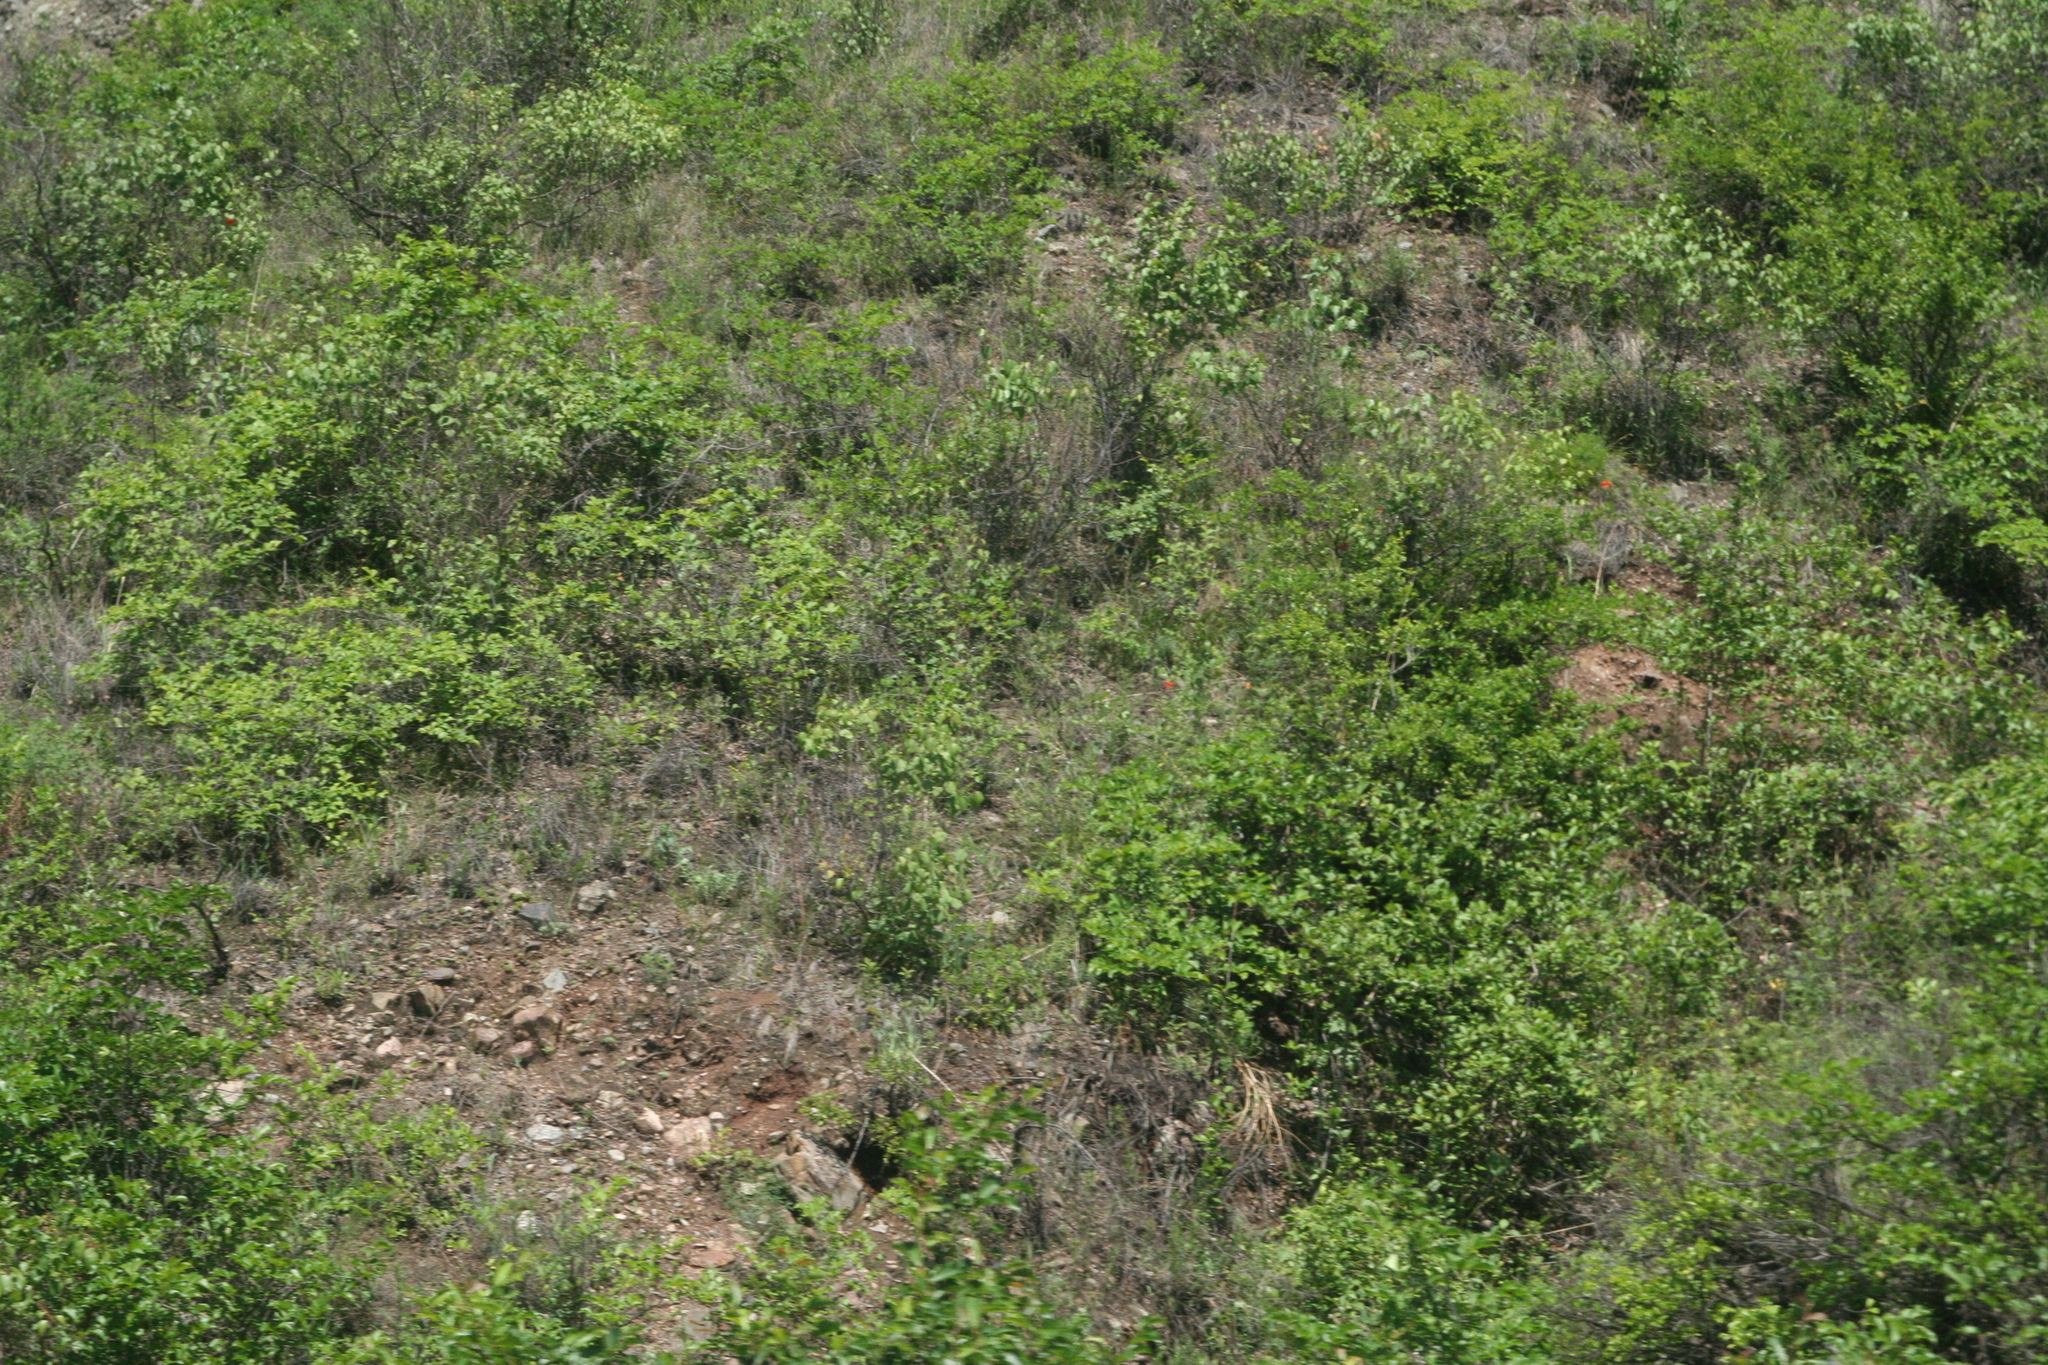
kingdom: Plantae
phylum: Tracheophyta
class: Magnoliopsida
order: Rosales
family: Rosaceae
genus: Prunus
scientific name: Prunus sibirica
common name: Siberian apricot
